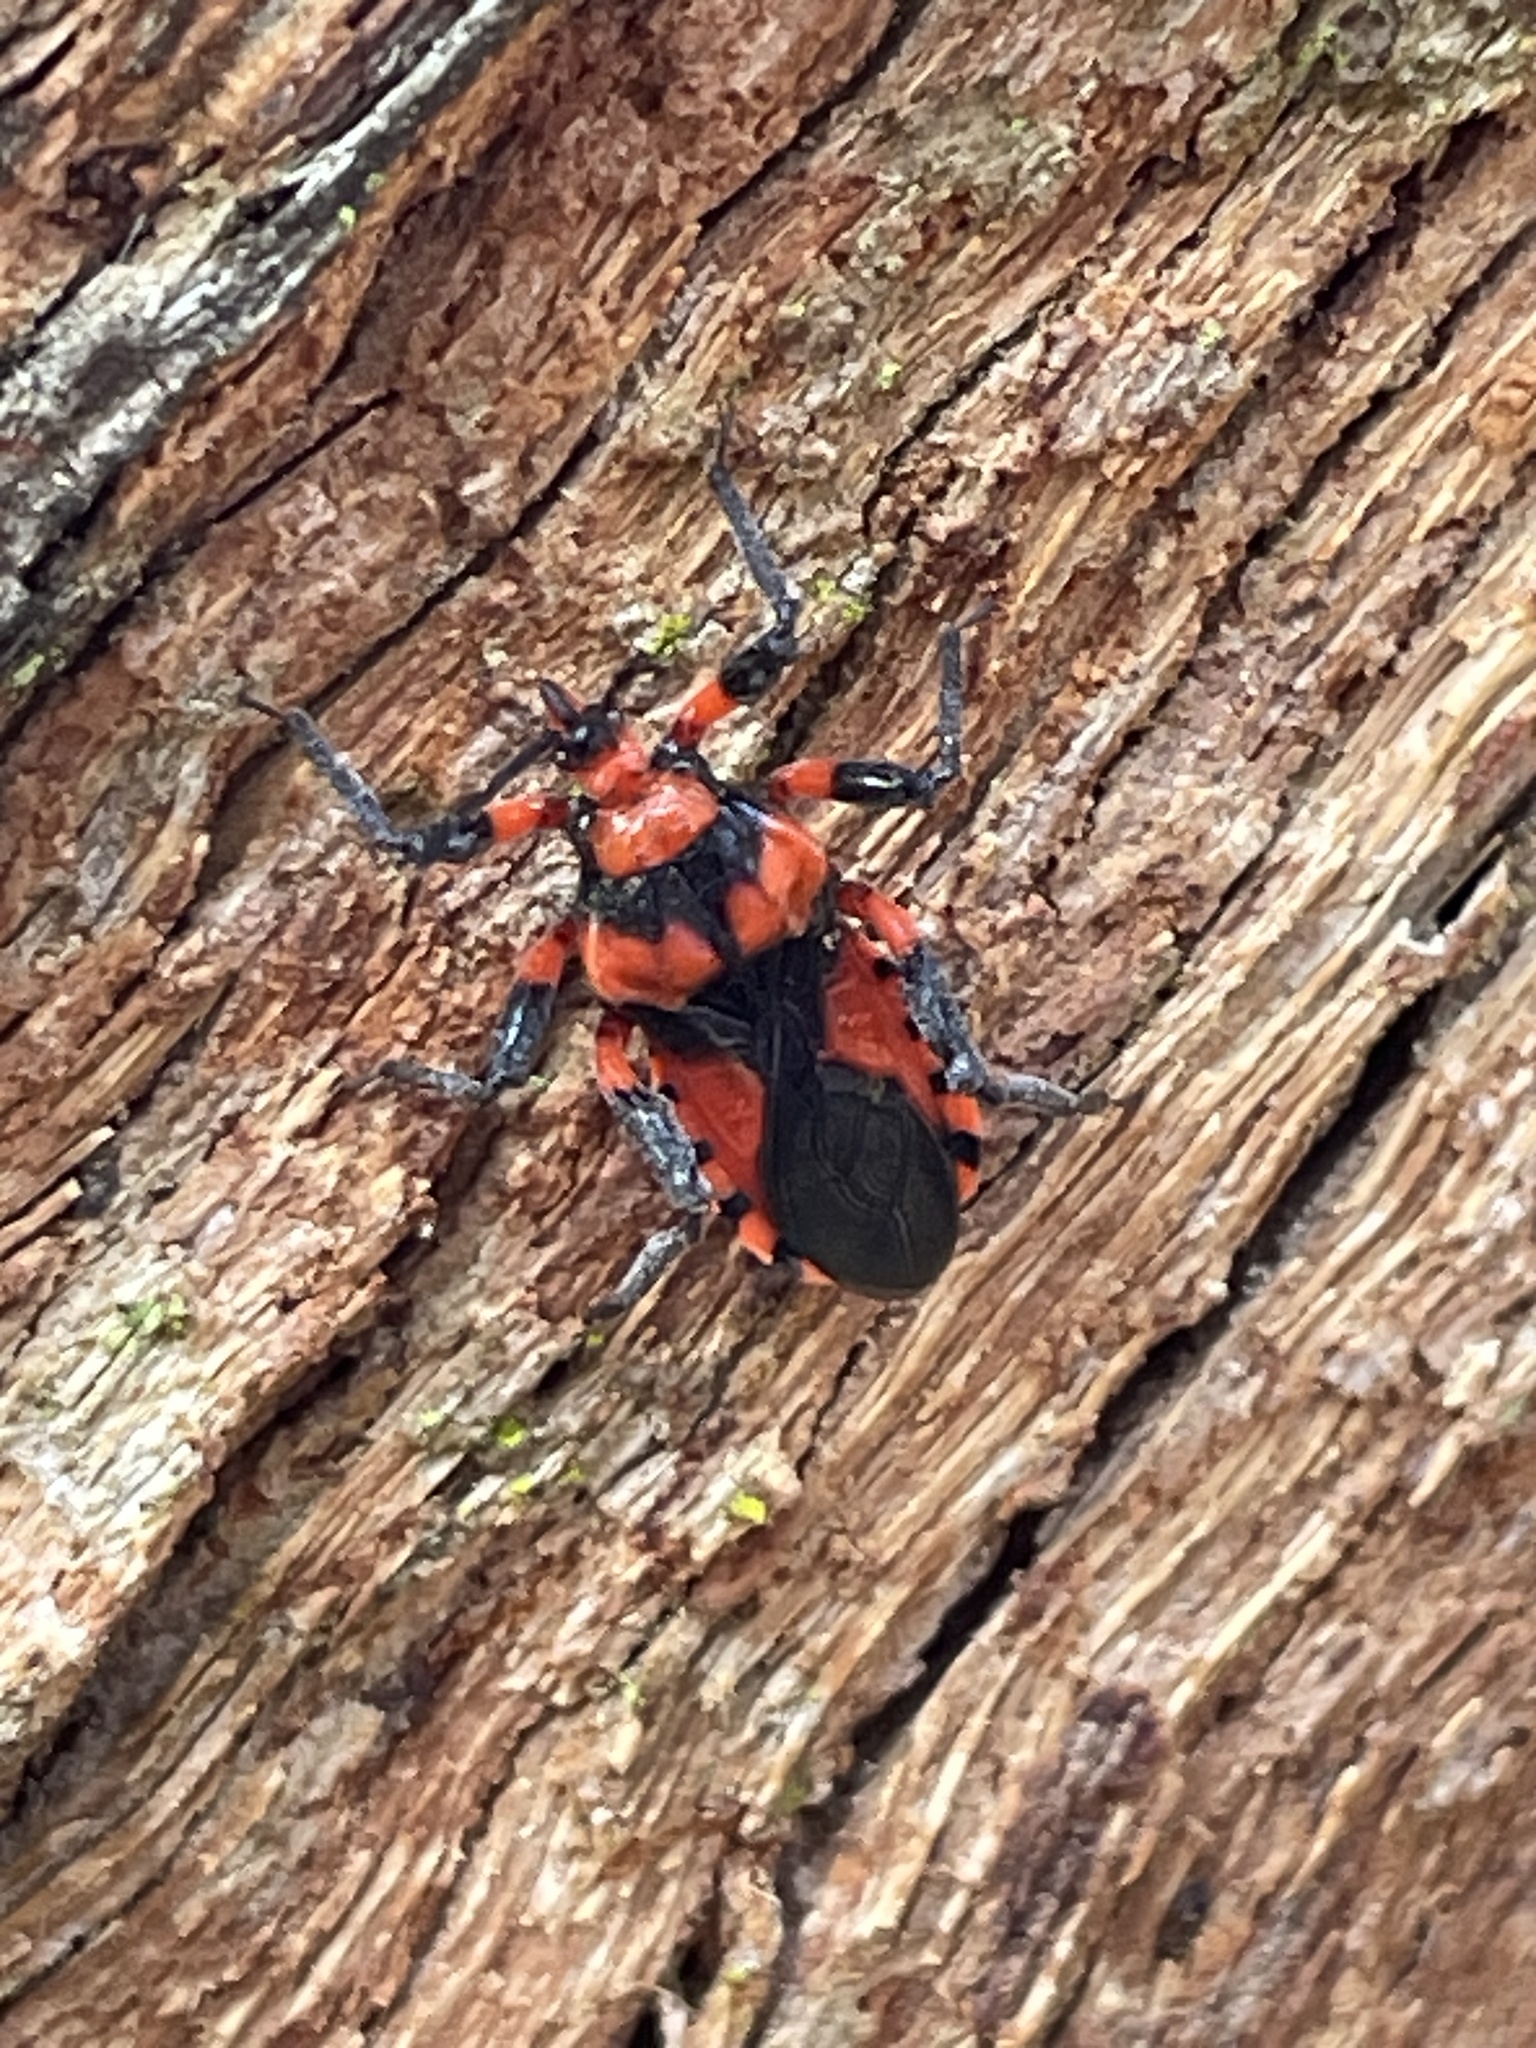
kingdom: Animalia
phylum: Arthropoda
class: Insecta
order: Hemiptera
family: Reduviidae
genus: Tegea
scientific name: Tegea atropicta
